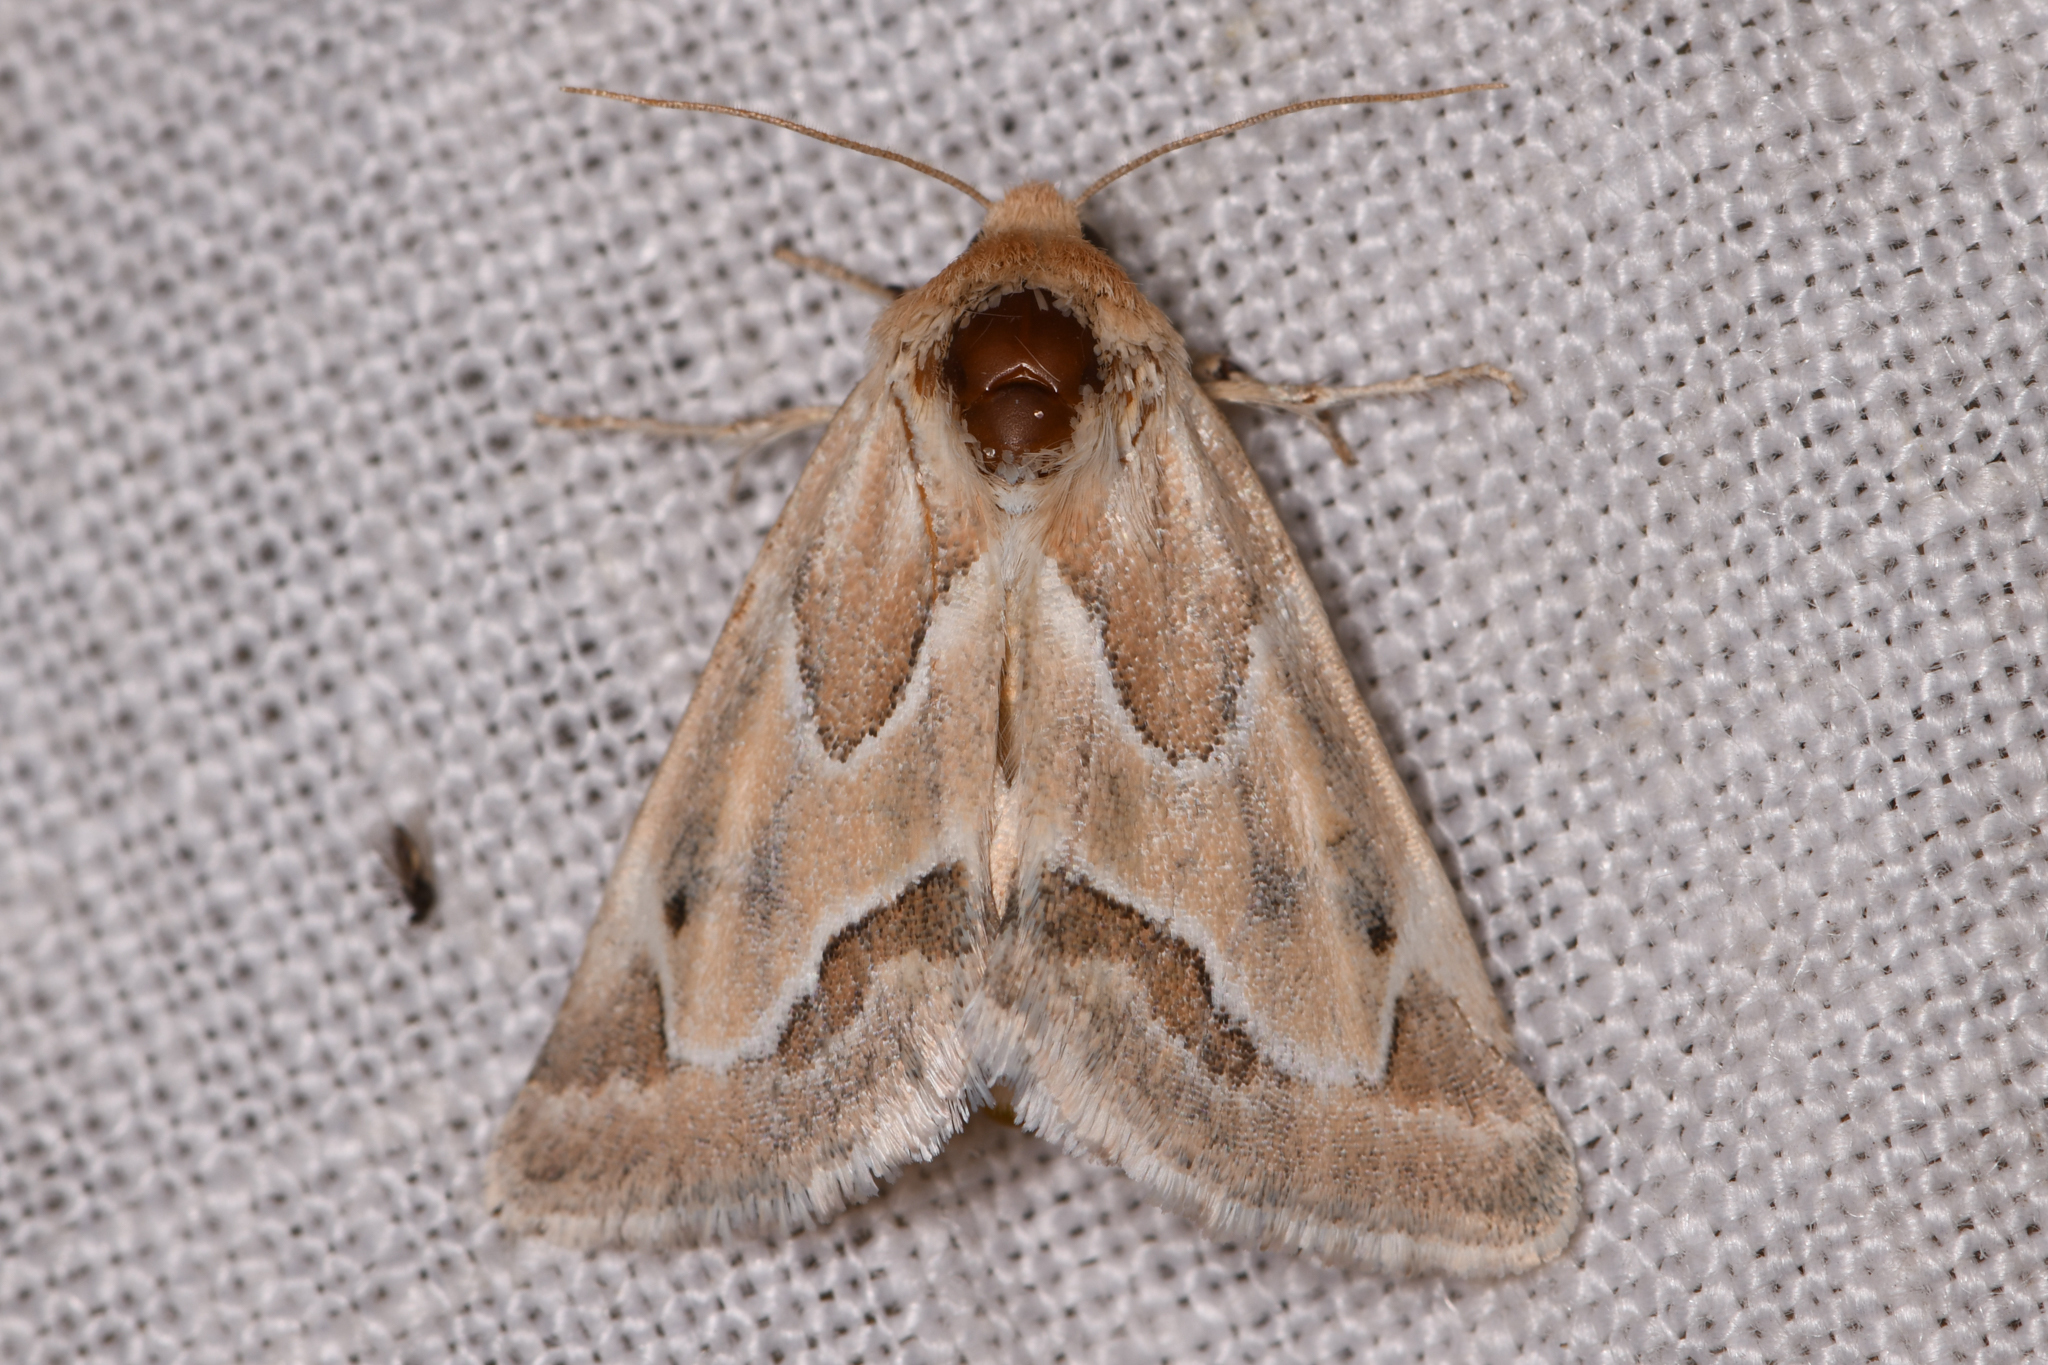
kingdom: Animalia
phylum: Arthropoda
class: Insecta
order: Lepidoptera
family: Noctuidae
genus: Schinia
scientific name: Schinia acutilinea
